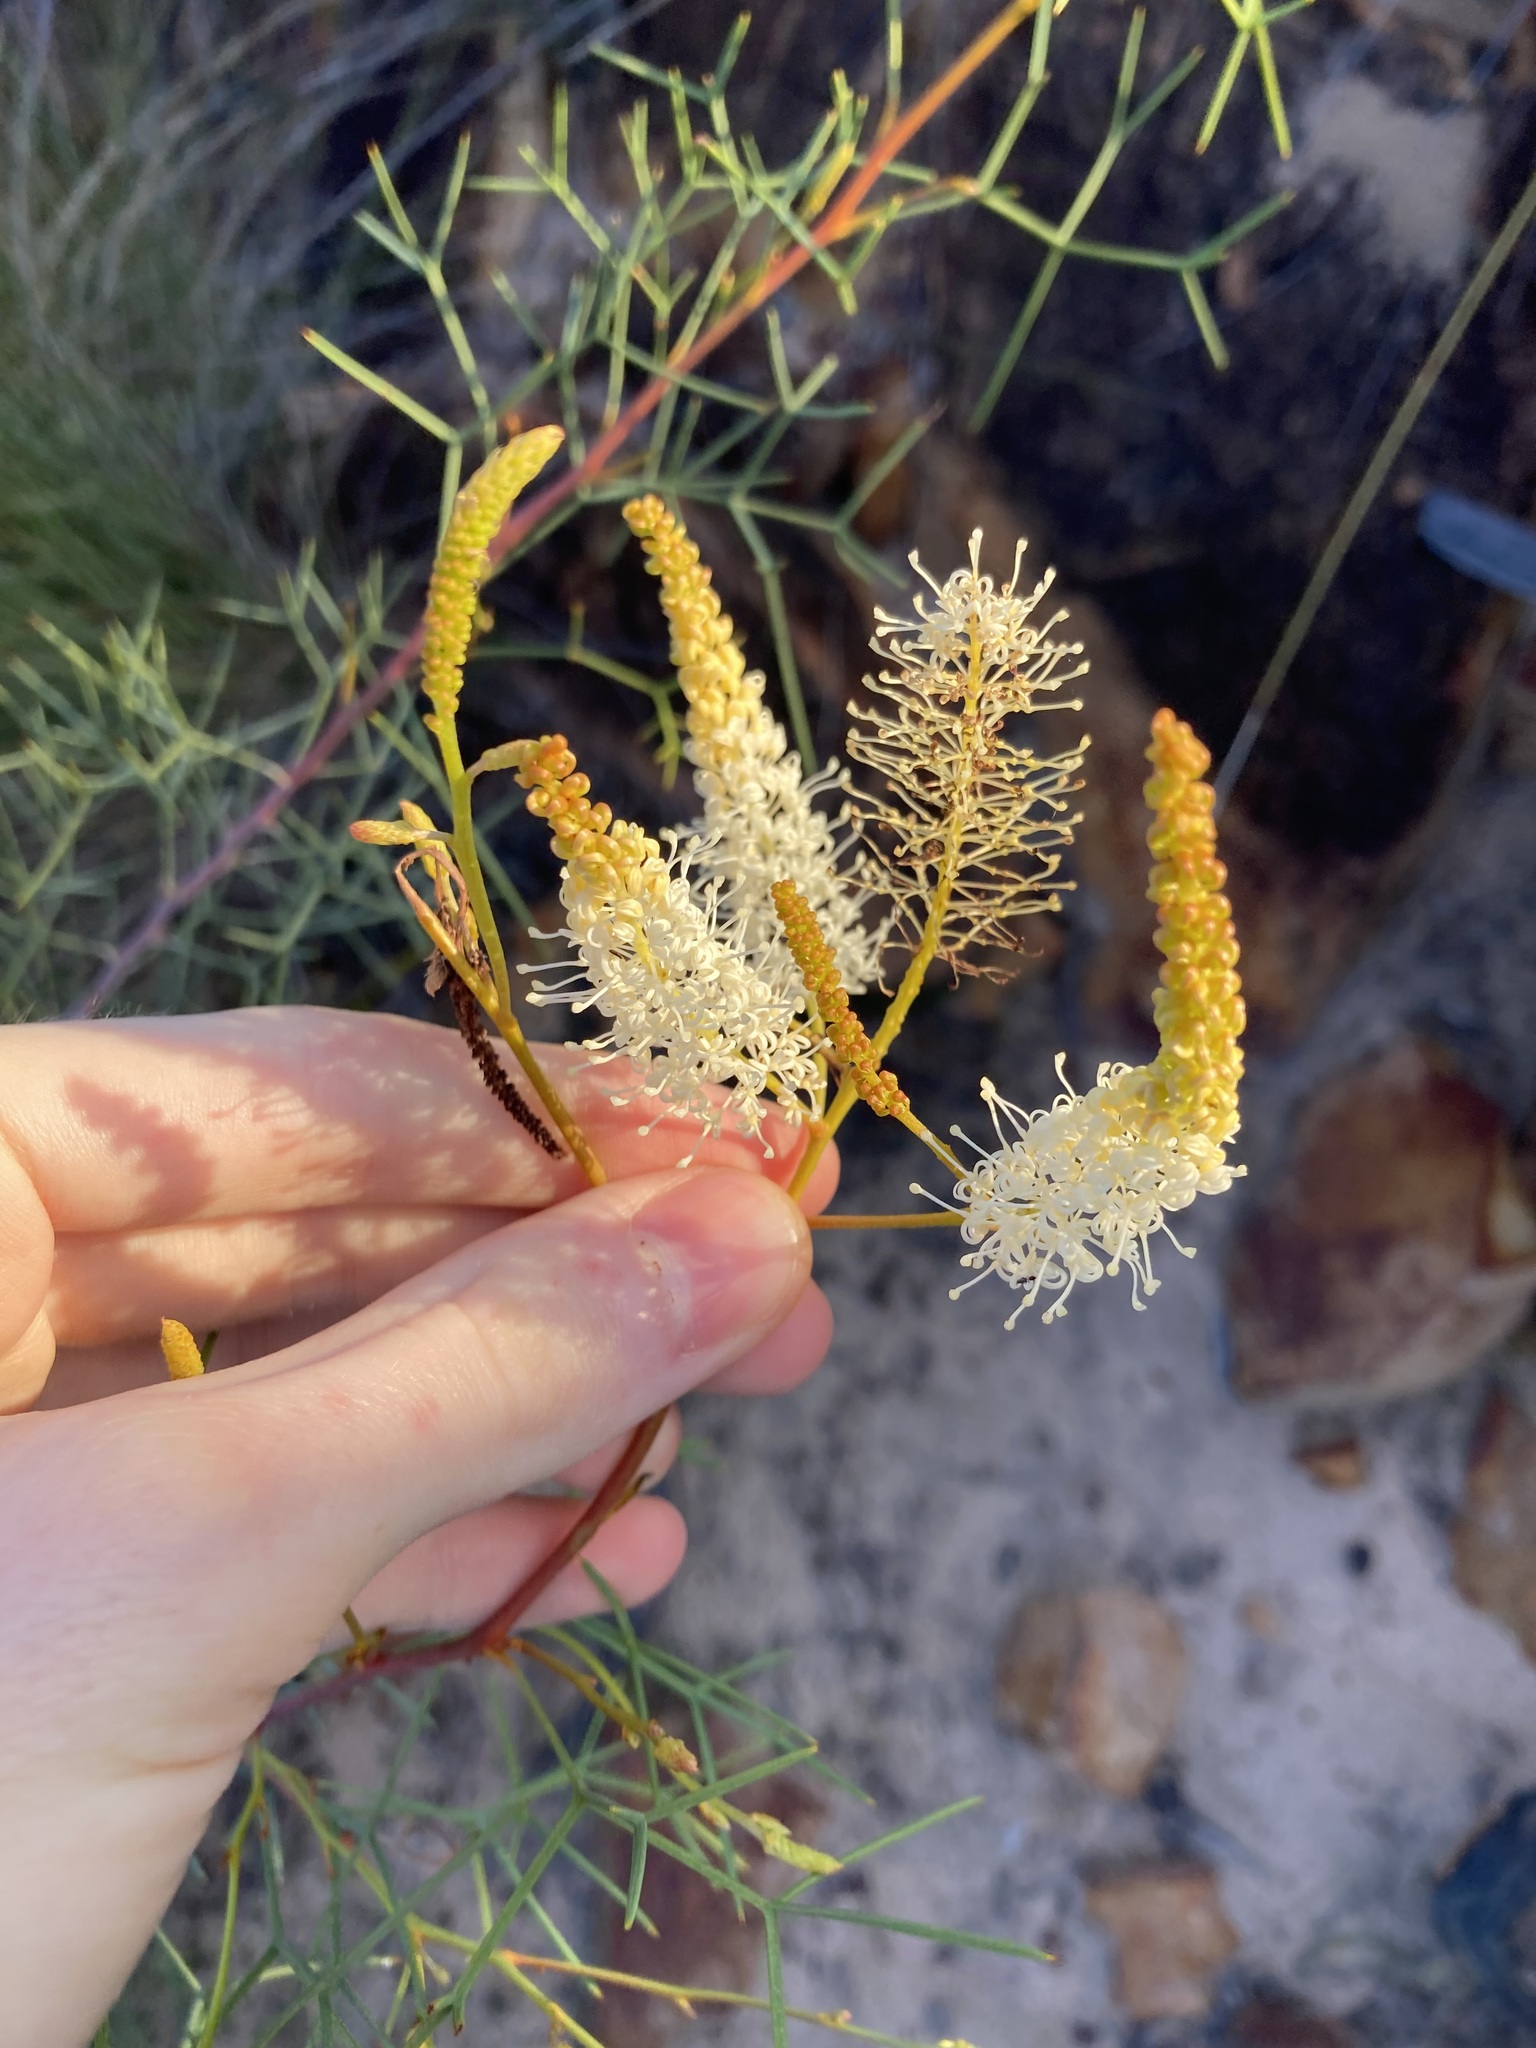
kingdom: Plantae
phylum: Tracheophyta
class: Magnoliopsida
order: Proteales
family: Proteaceae
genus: Grevillea
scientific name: Grevillea leucoclada
